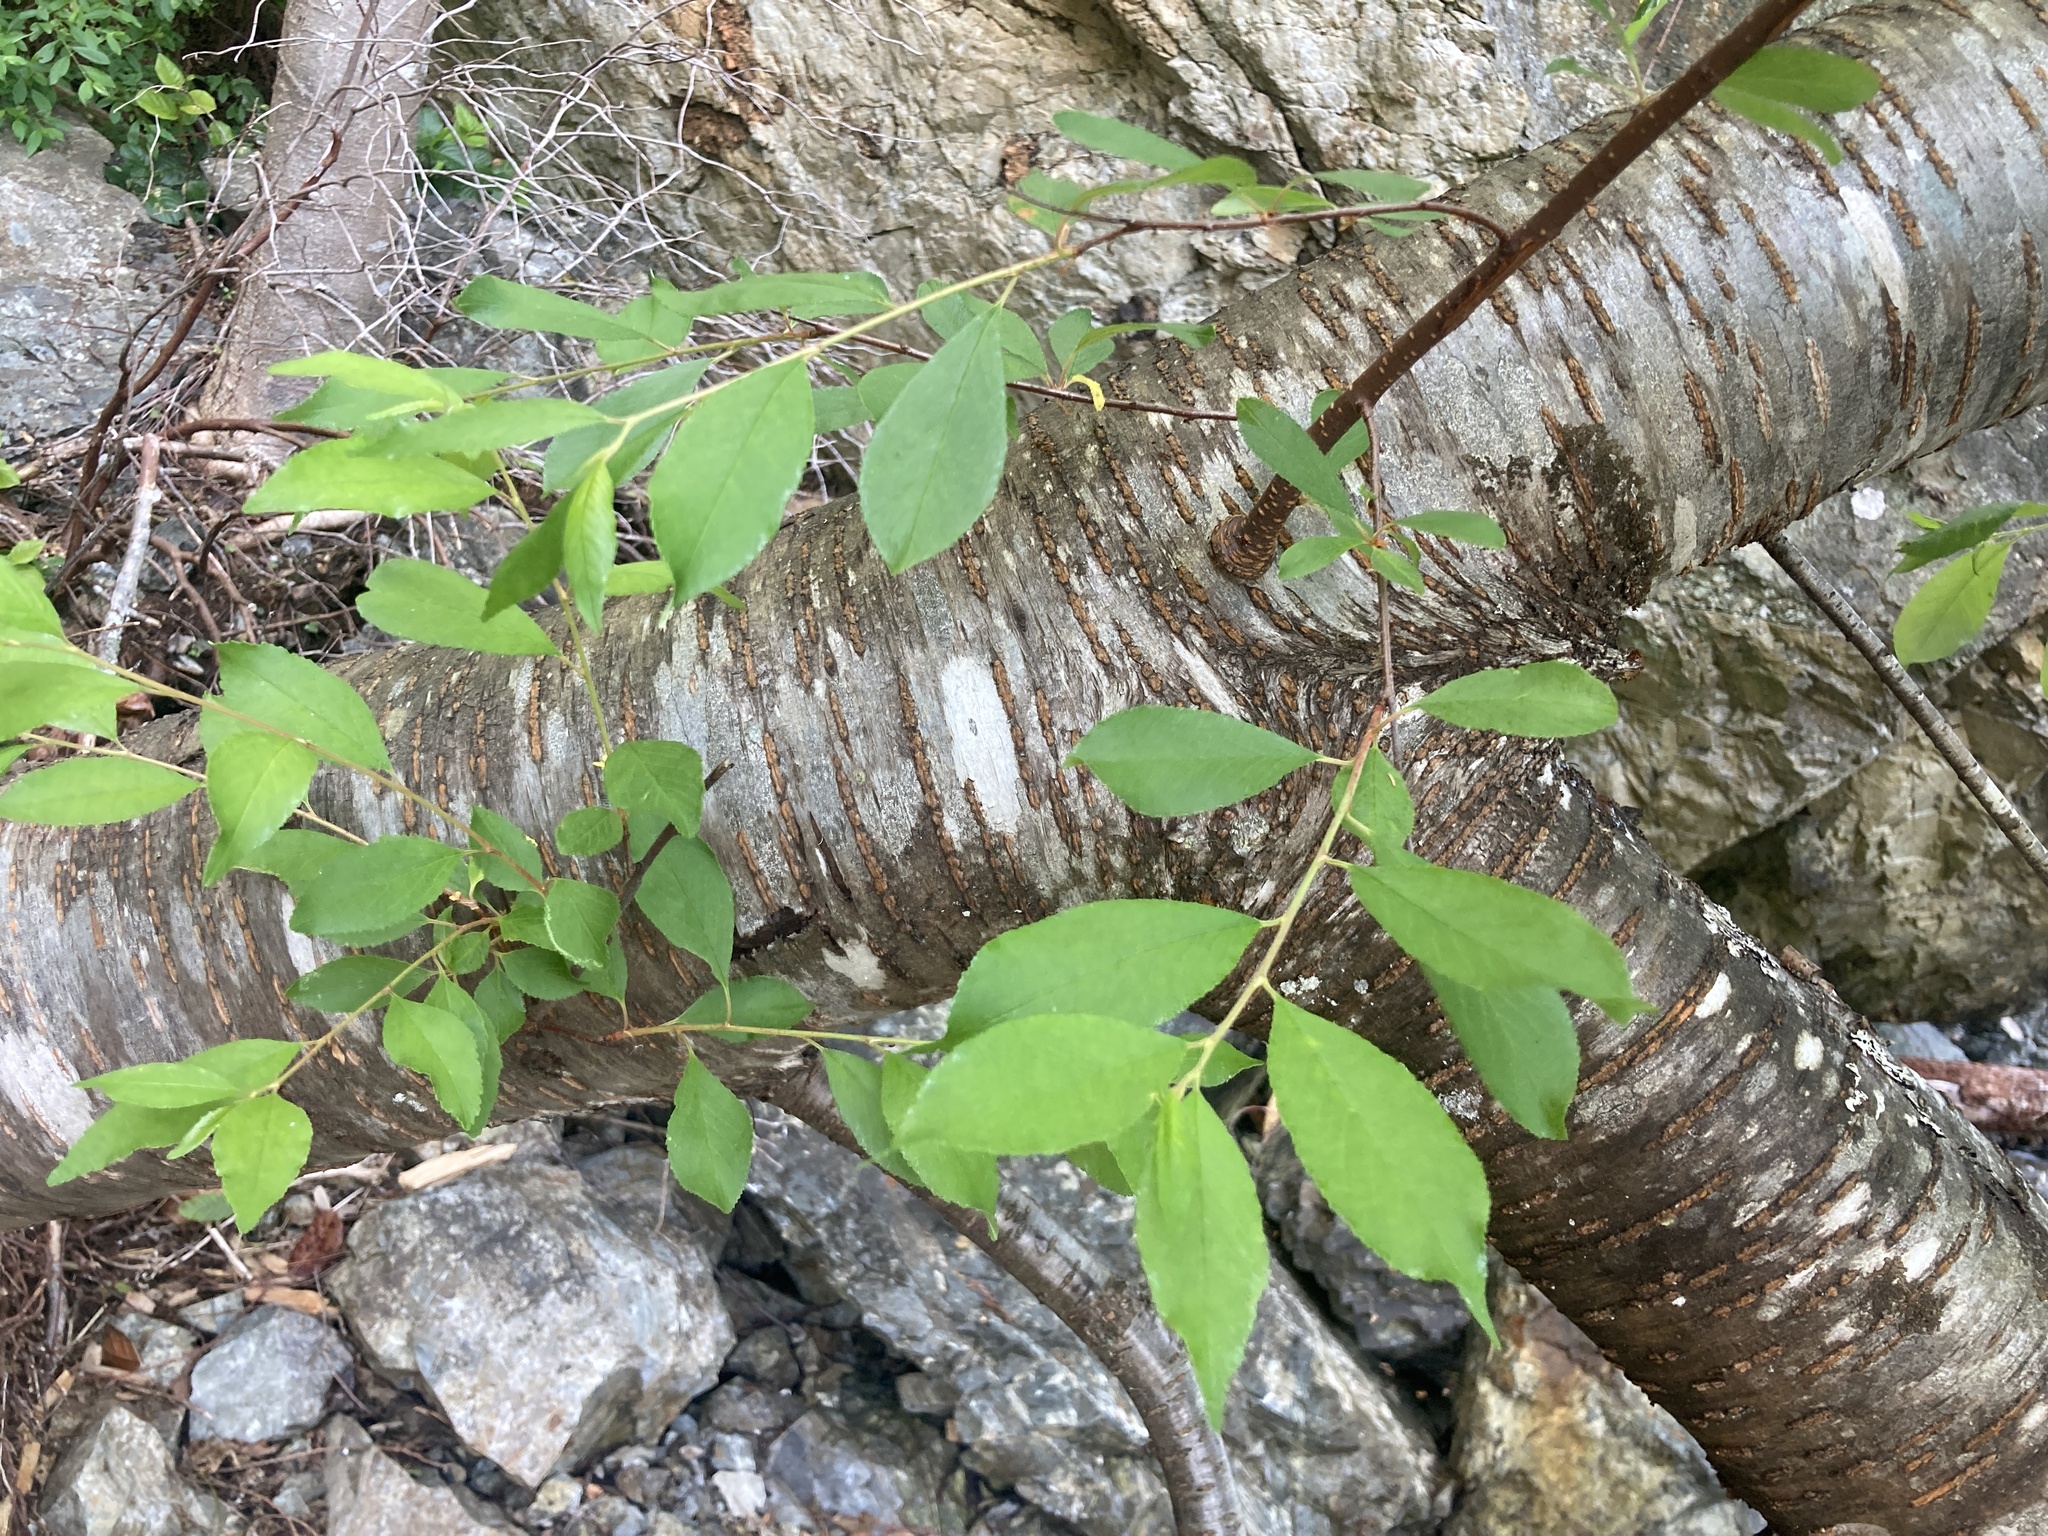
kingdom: Plantae
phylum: Tracheophyta
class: Magnoliopsida
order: Rosales
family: Rosaceae
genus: Prunus
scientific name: Prunus emarginata
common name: Bitter cherry
